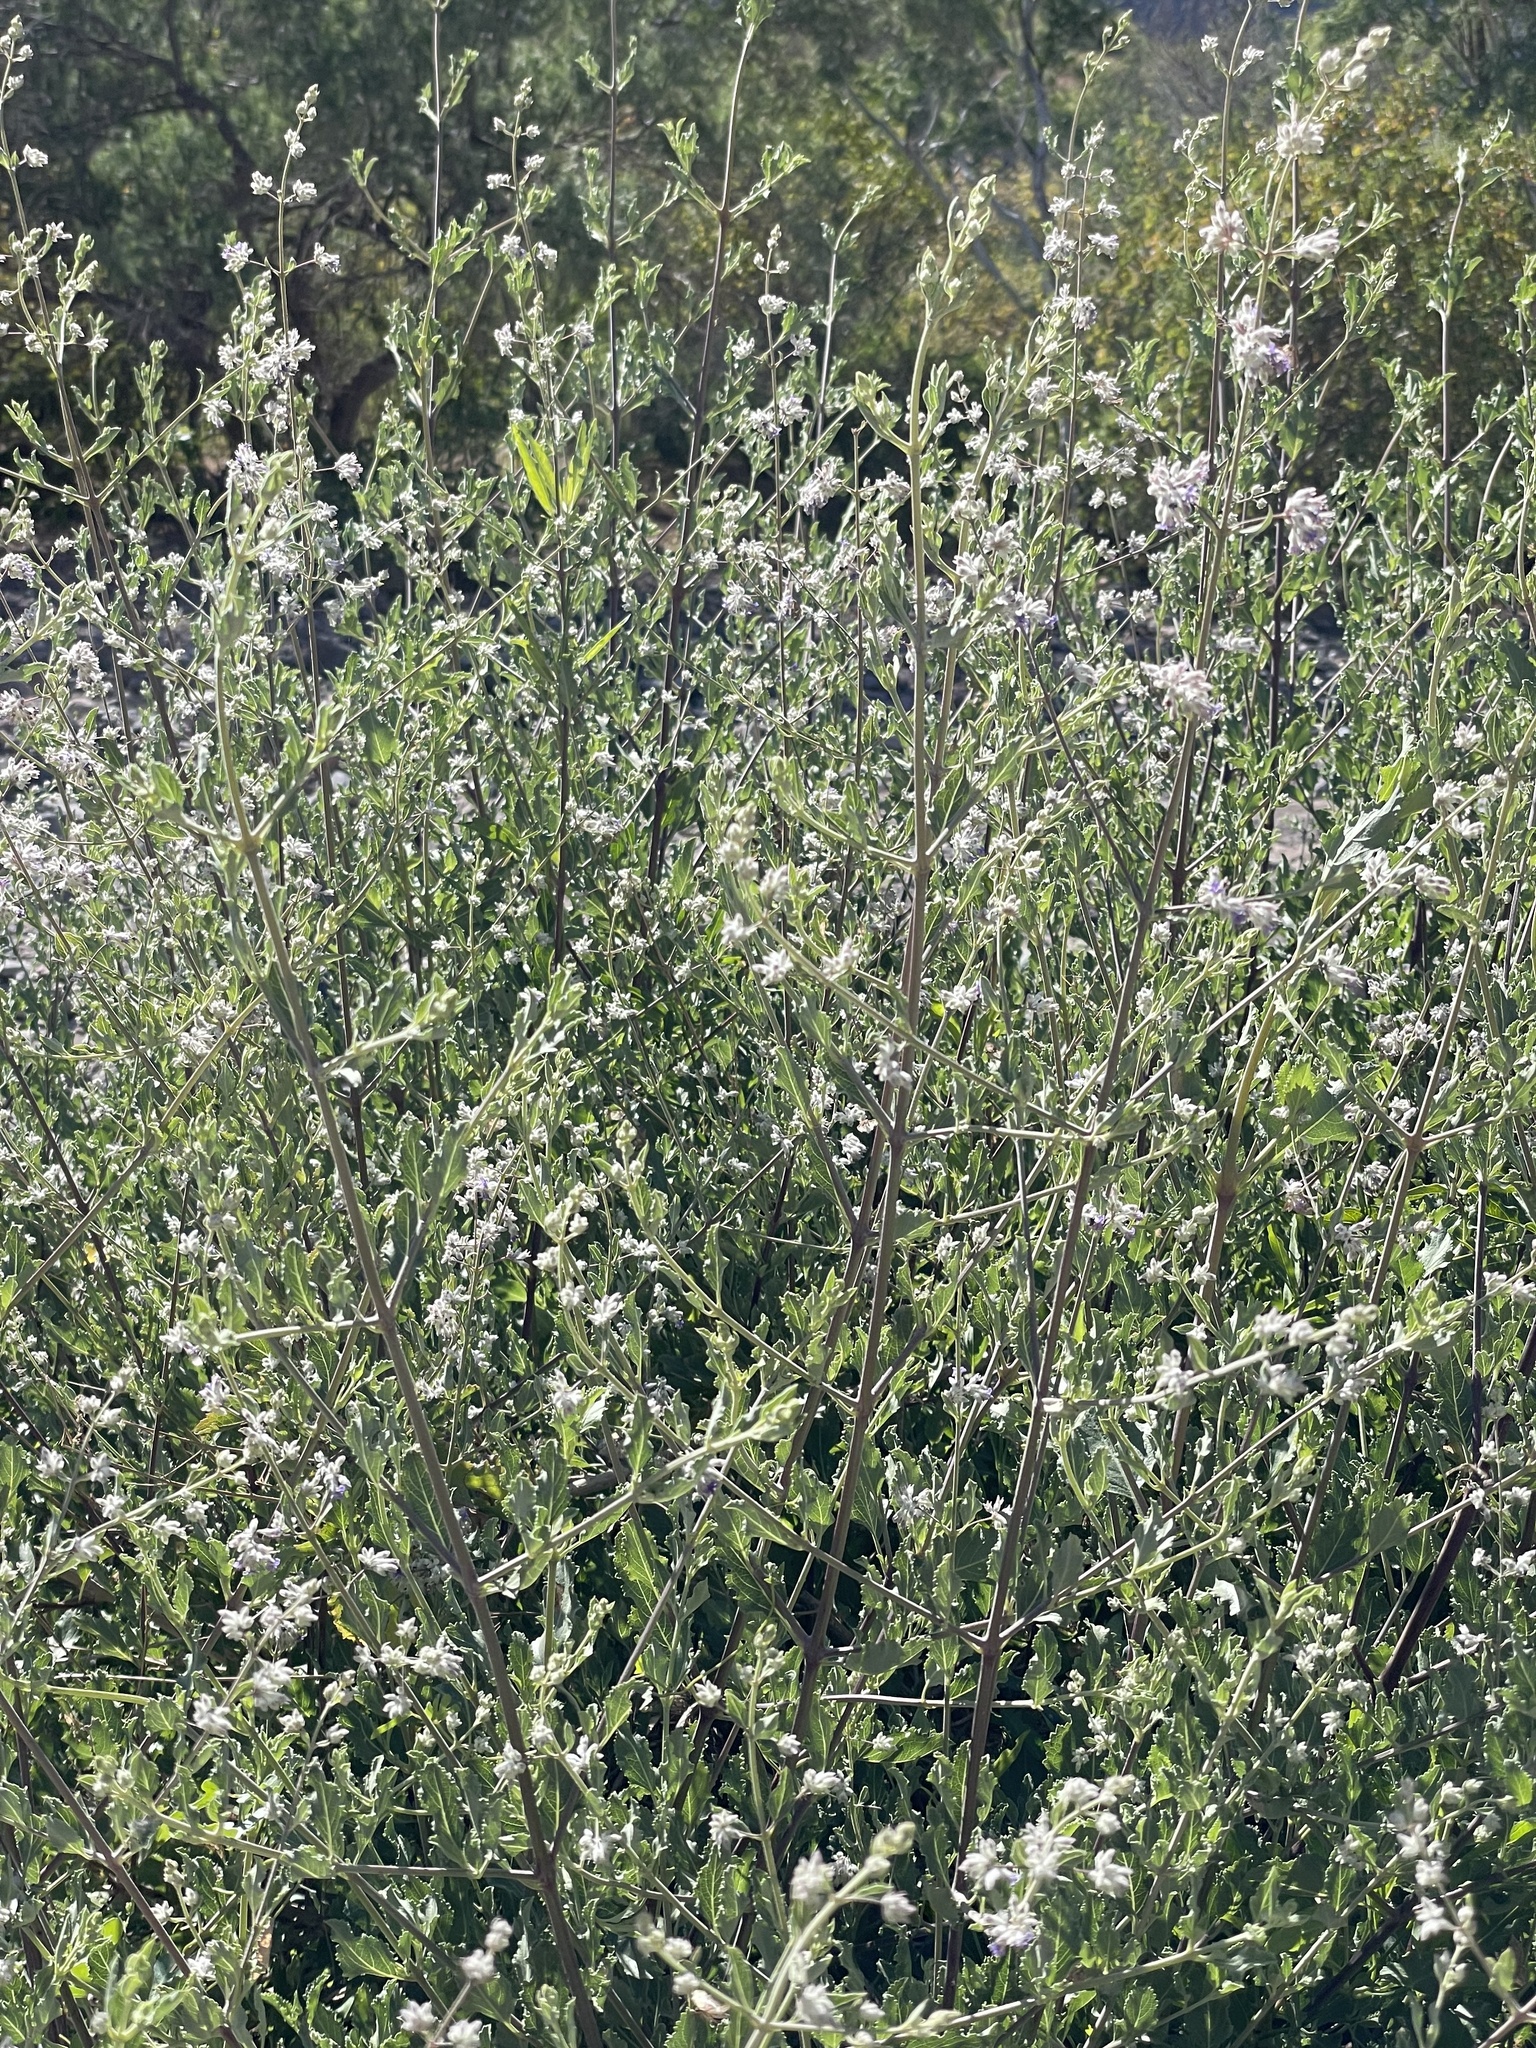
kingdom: Plantae
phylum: Tracheophyta
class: Magnoliopsida
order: Lamiales
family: Lamiaceae
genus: Condea
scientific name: Condea emoryi
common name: Chia
